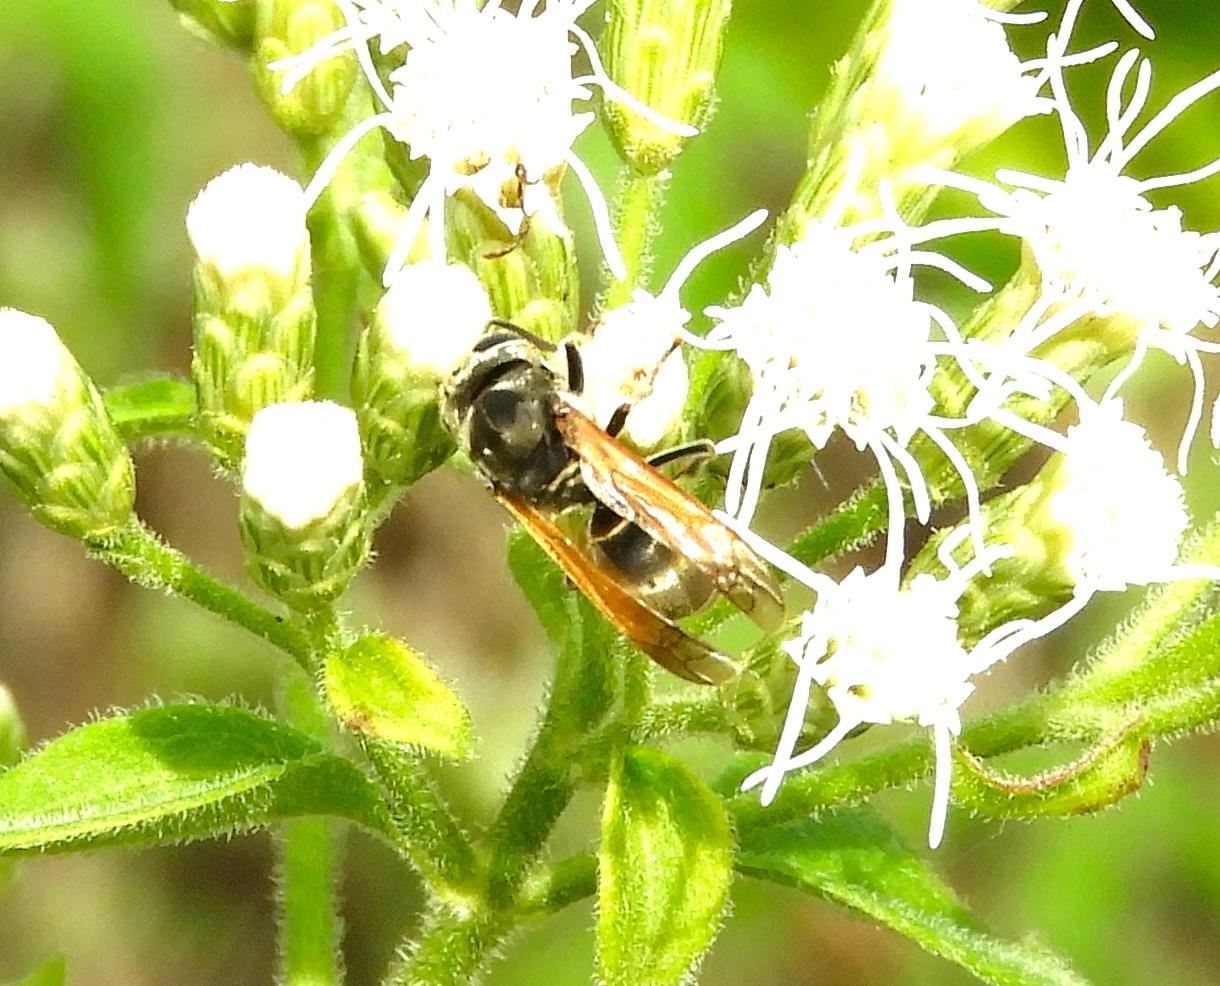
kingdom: Animalia
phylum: Arthropoda
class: Insecta
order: Hymenoptera
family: Vespidae
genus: Brachygastra
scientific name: Brachygastra mellifica
